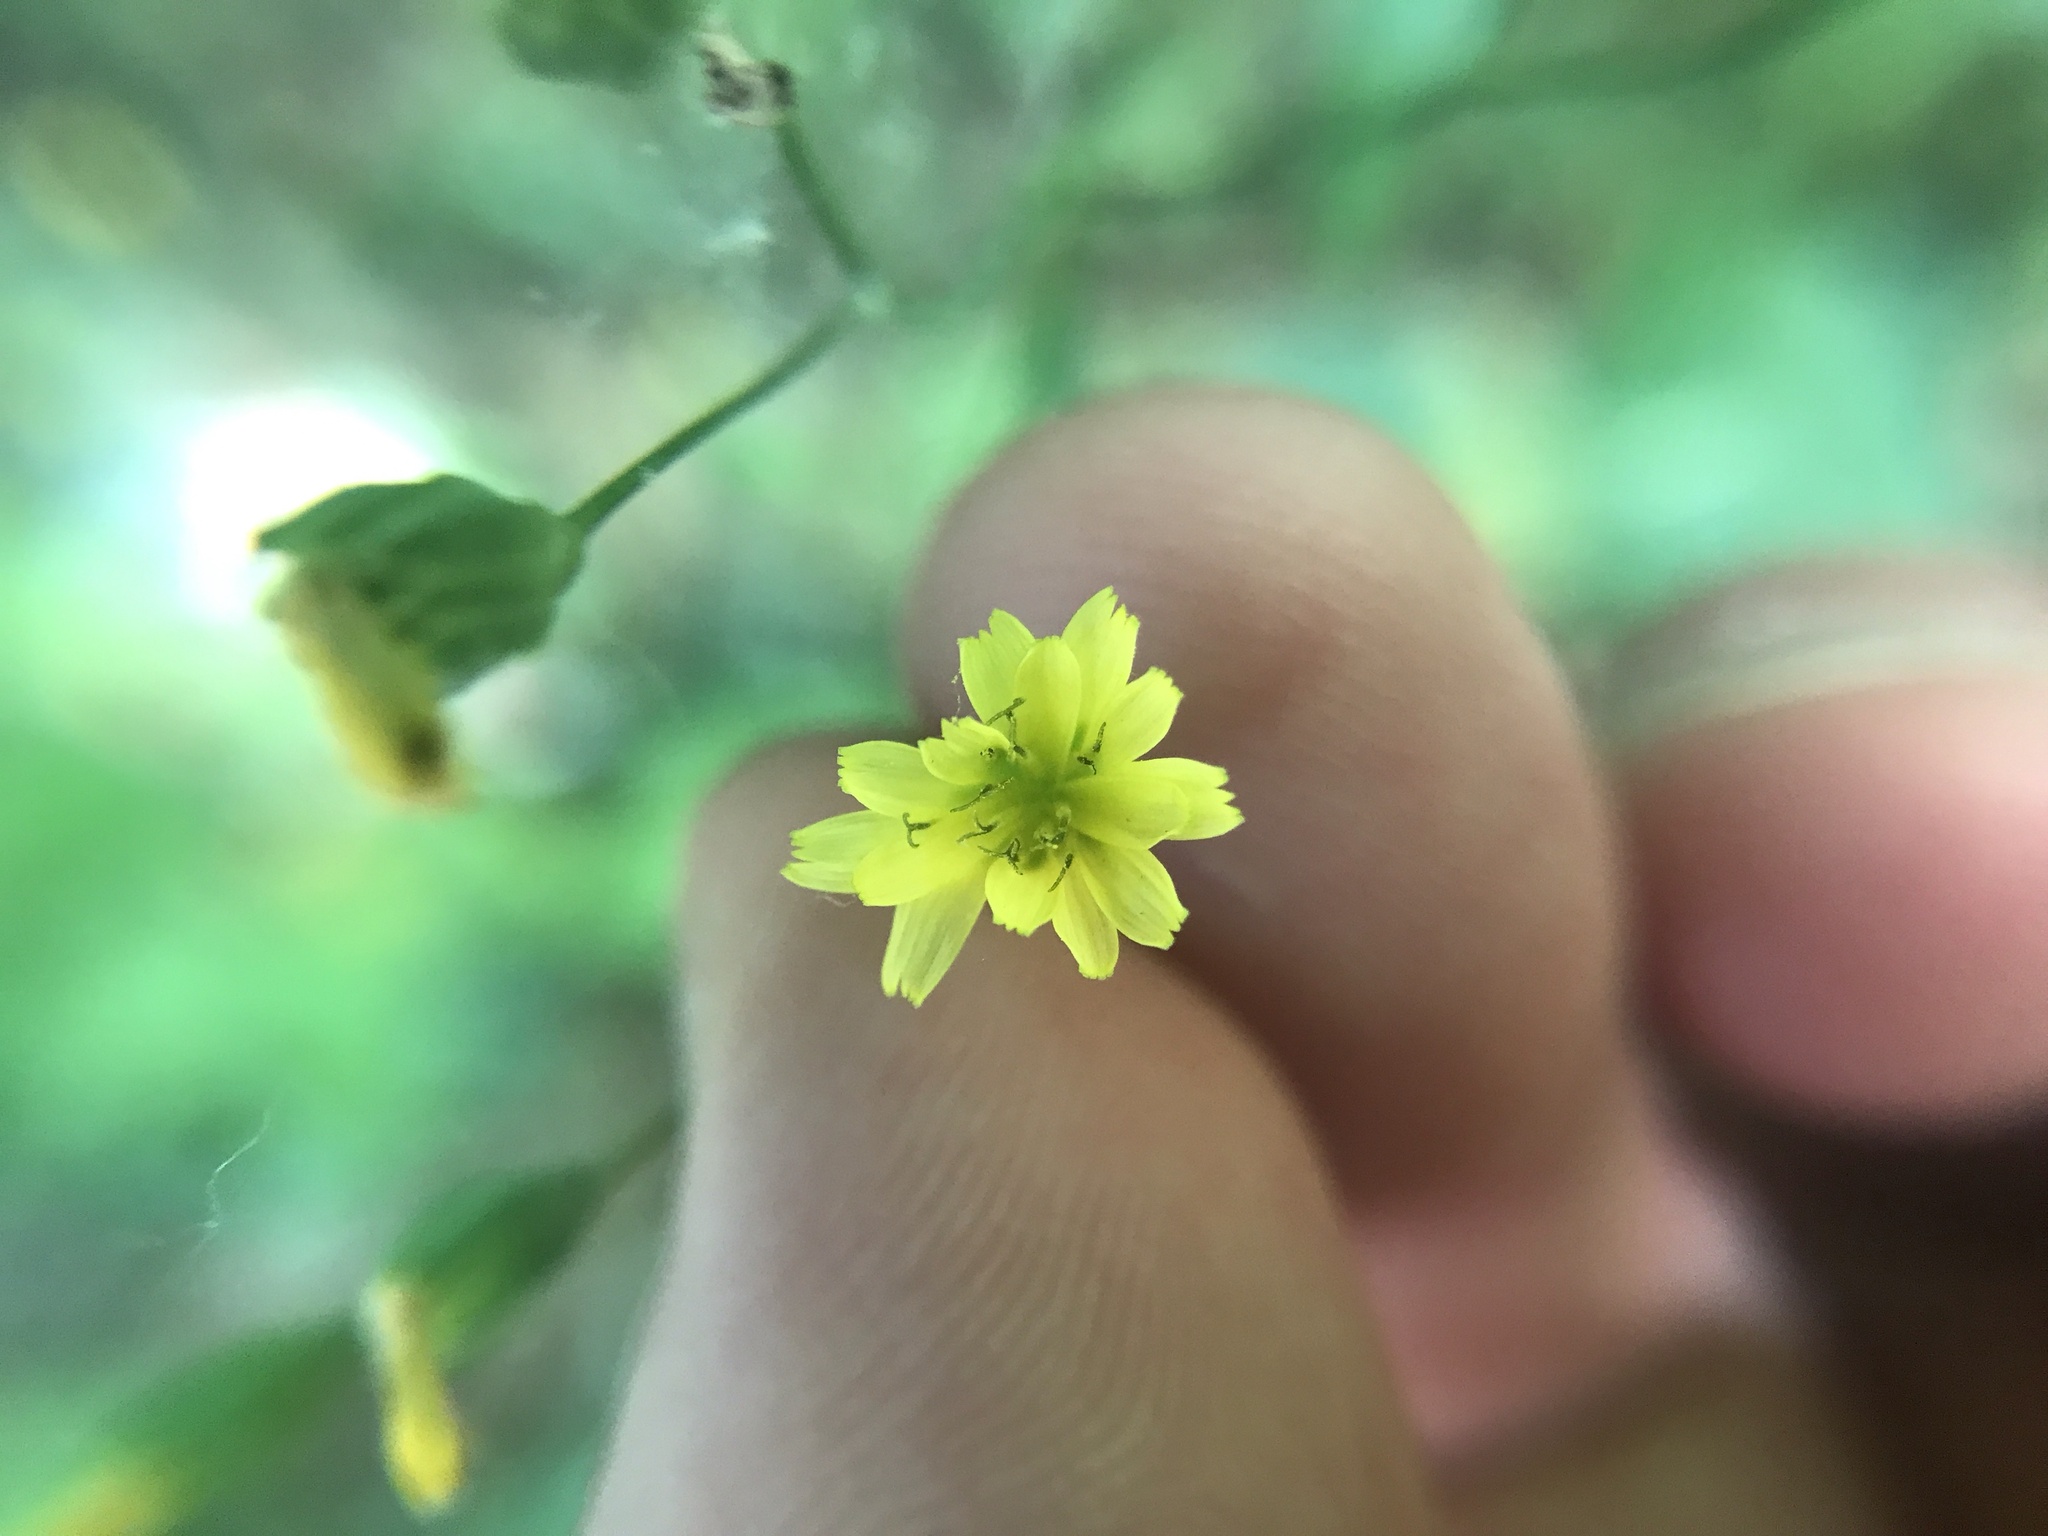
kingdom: Plantae
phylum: Tracheophyta
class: Magnoliopsida
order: Asterales
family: Asteraceae
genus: Lapsana
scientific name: Lapsana communis
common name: Nipplewort
